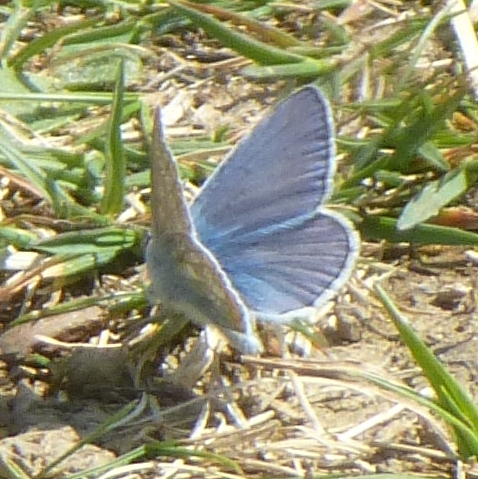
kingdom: Animalia
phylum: Arthropoda
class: Insecta
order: Lepidoptera
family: Lycaenidae
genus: Polyommatus
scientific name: Polyommatus icarus
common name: Common blue
